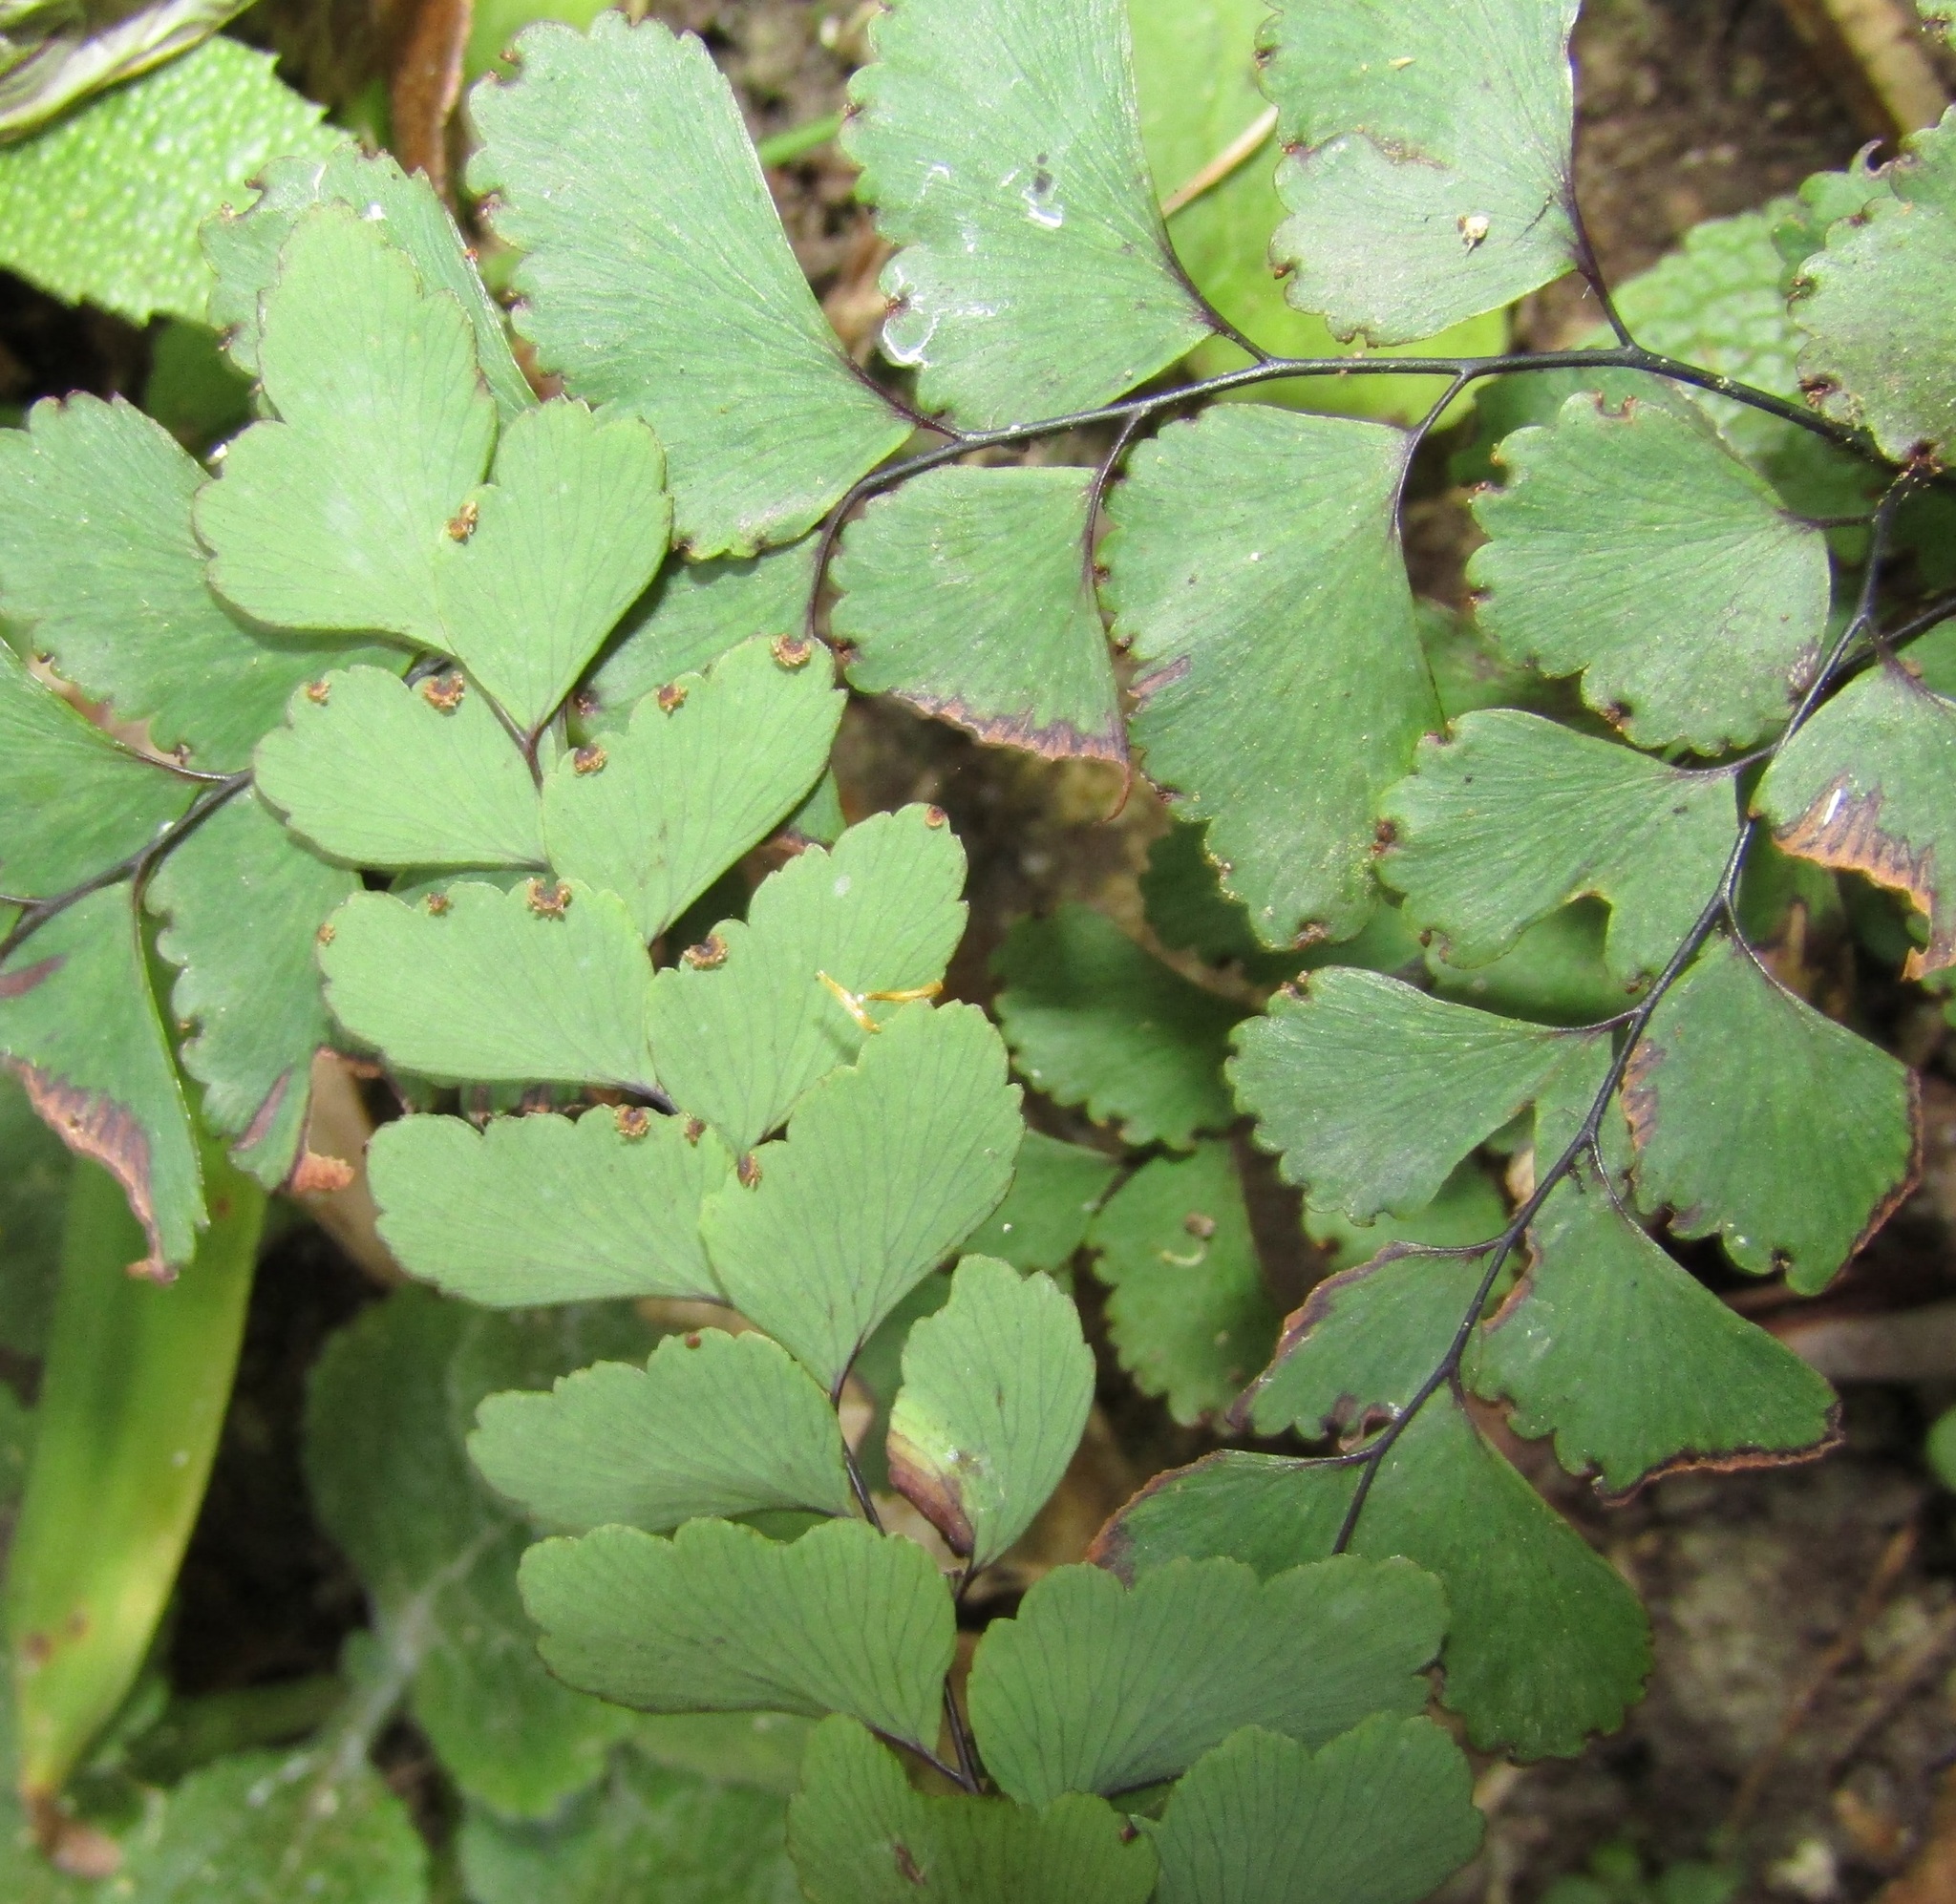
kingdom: Plantae
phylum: Tracheophyta
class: Polypodiopsida
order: Polypodiales
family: Pteridaceae
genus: Adiantum
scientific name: Adiantum cunninghamii
